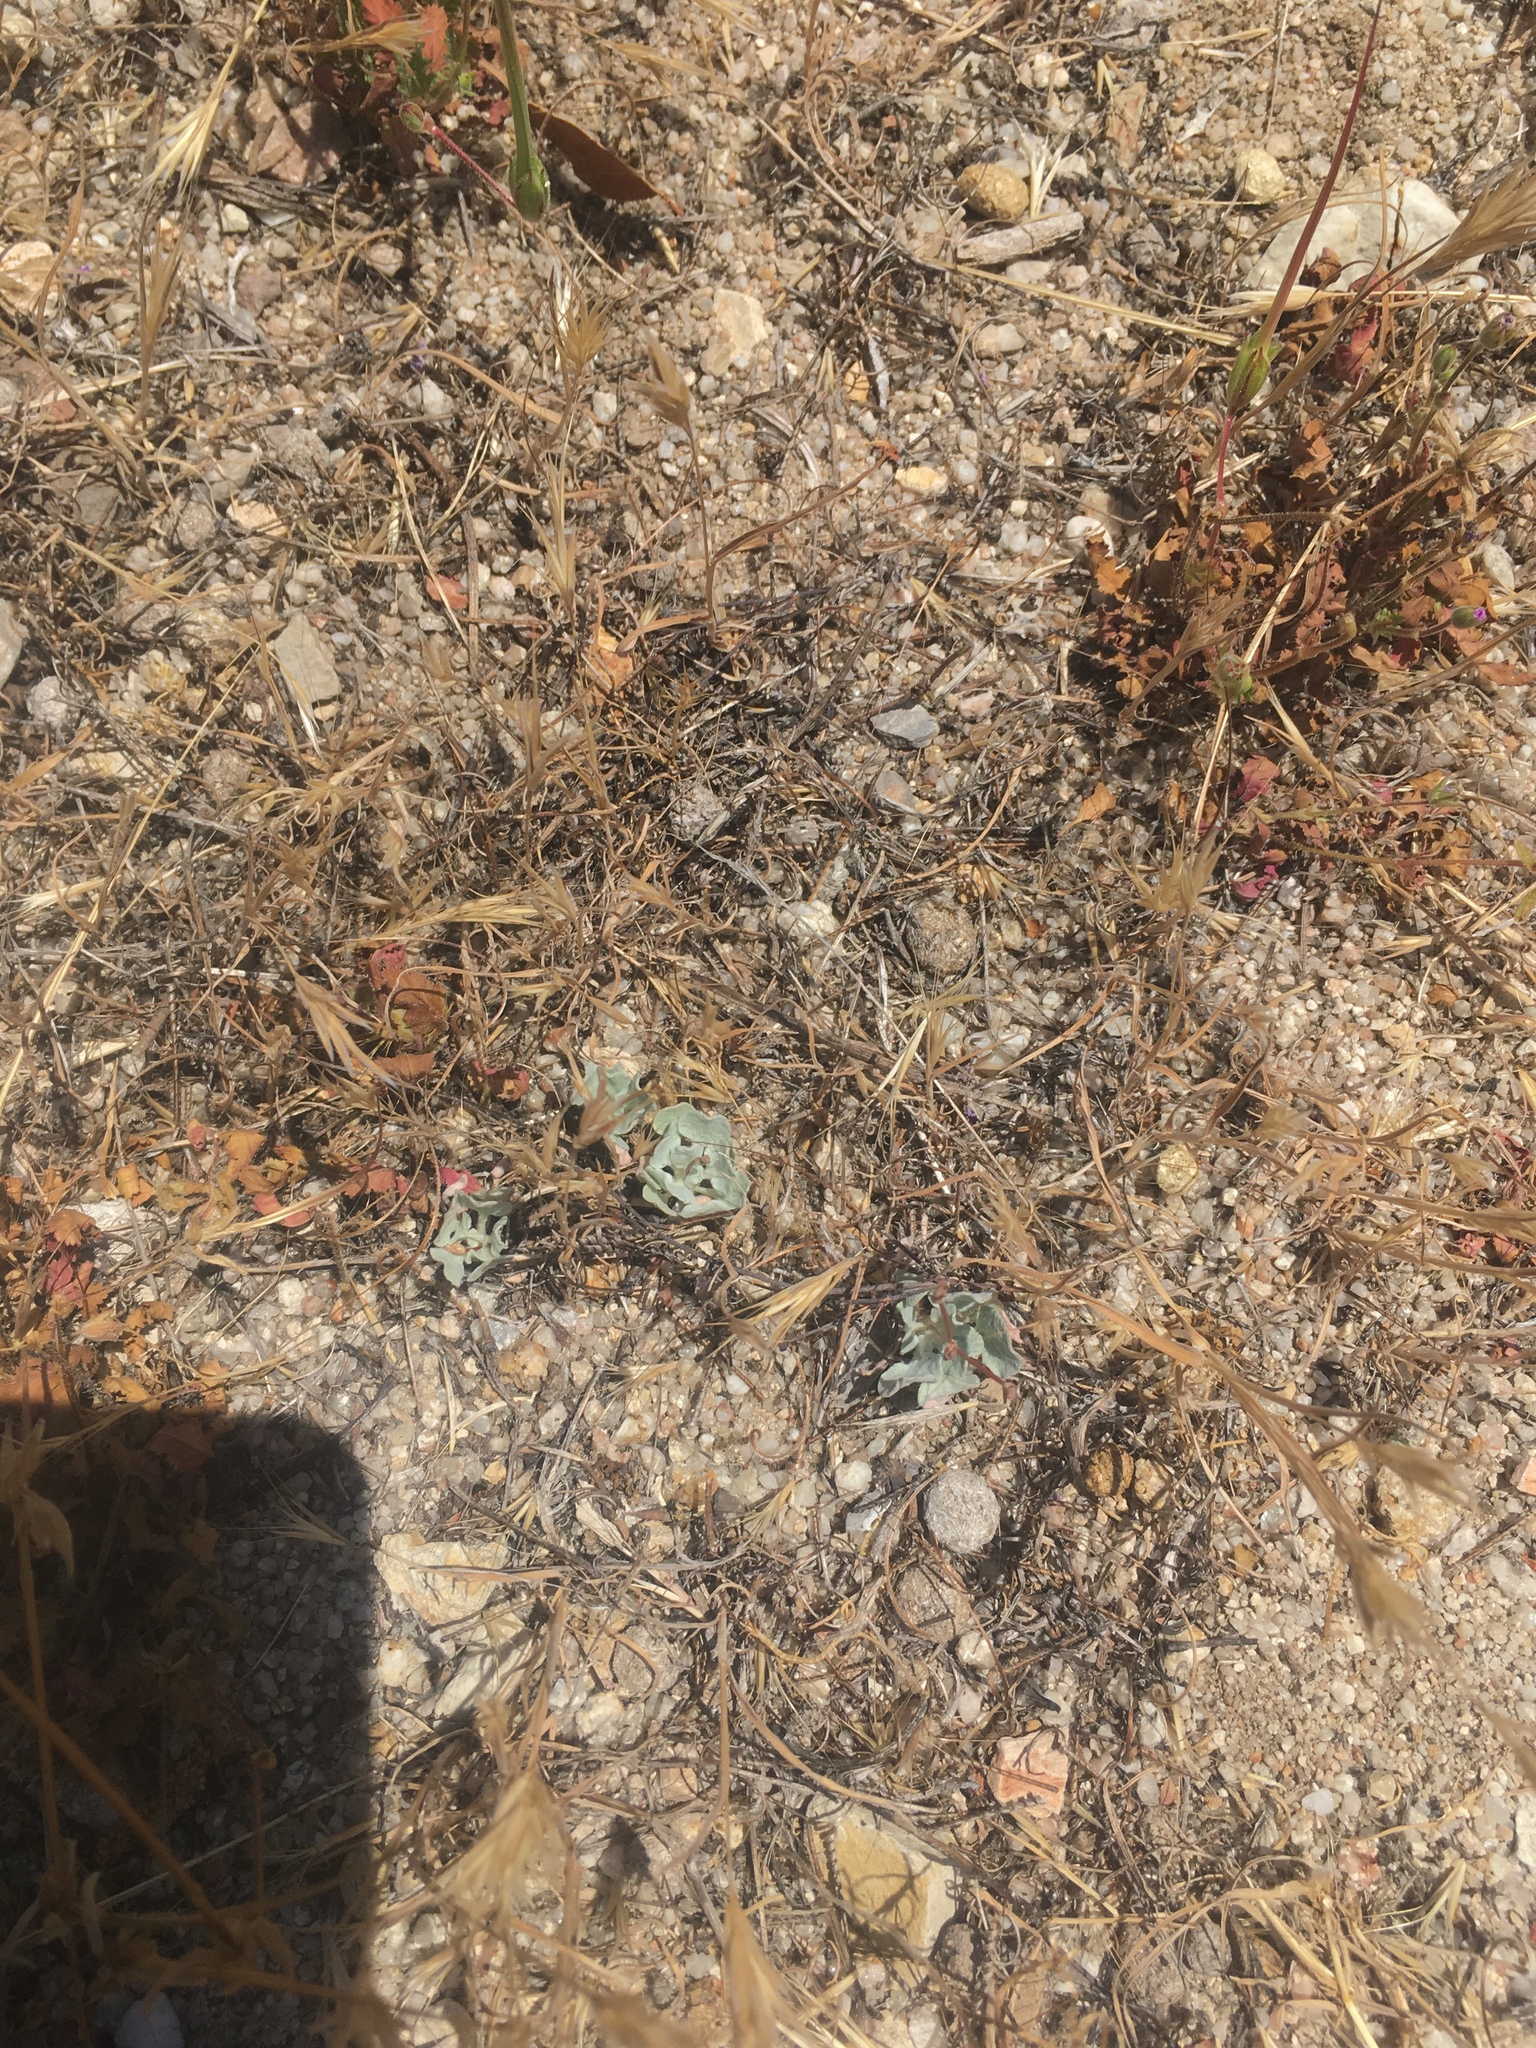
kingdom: Plantae
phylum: Tracheophyta
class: Magnoliopsida
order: Caryophyllales
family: Polygonaceae
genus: Eriogonum
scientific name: Eriogonum elegans
